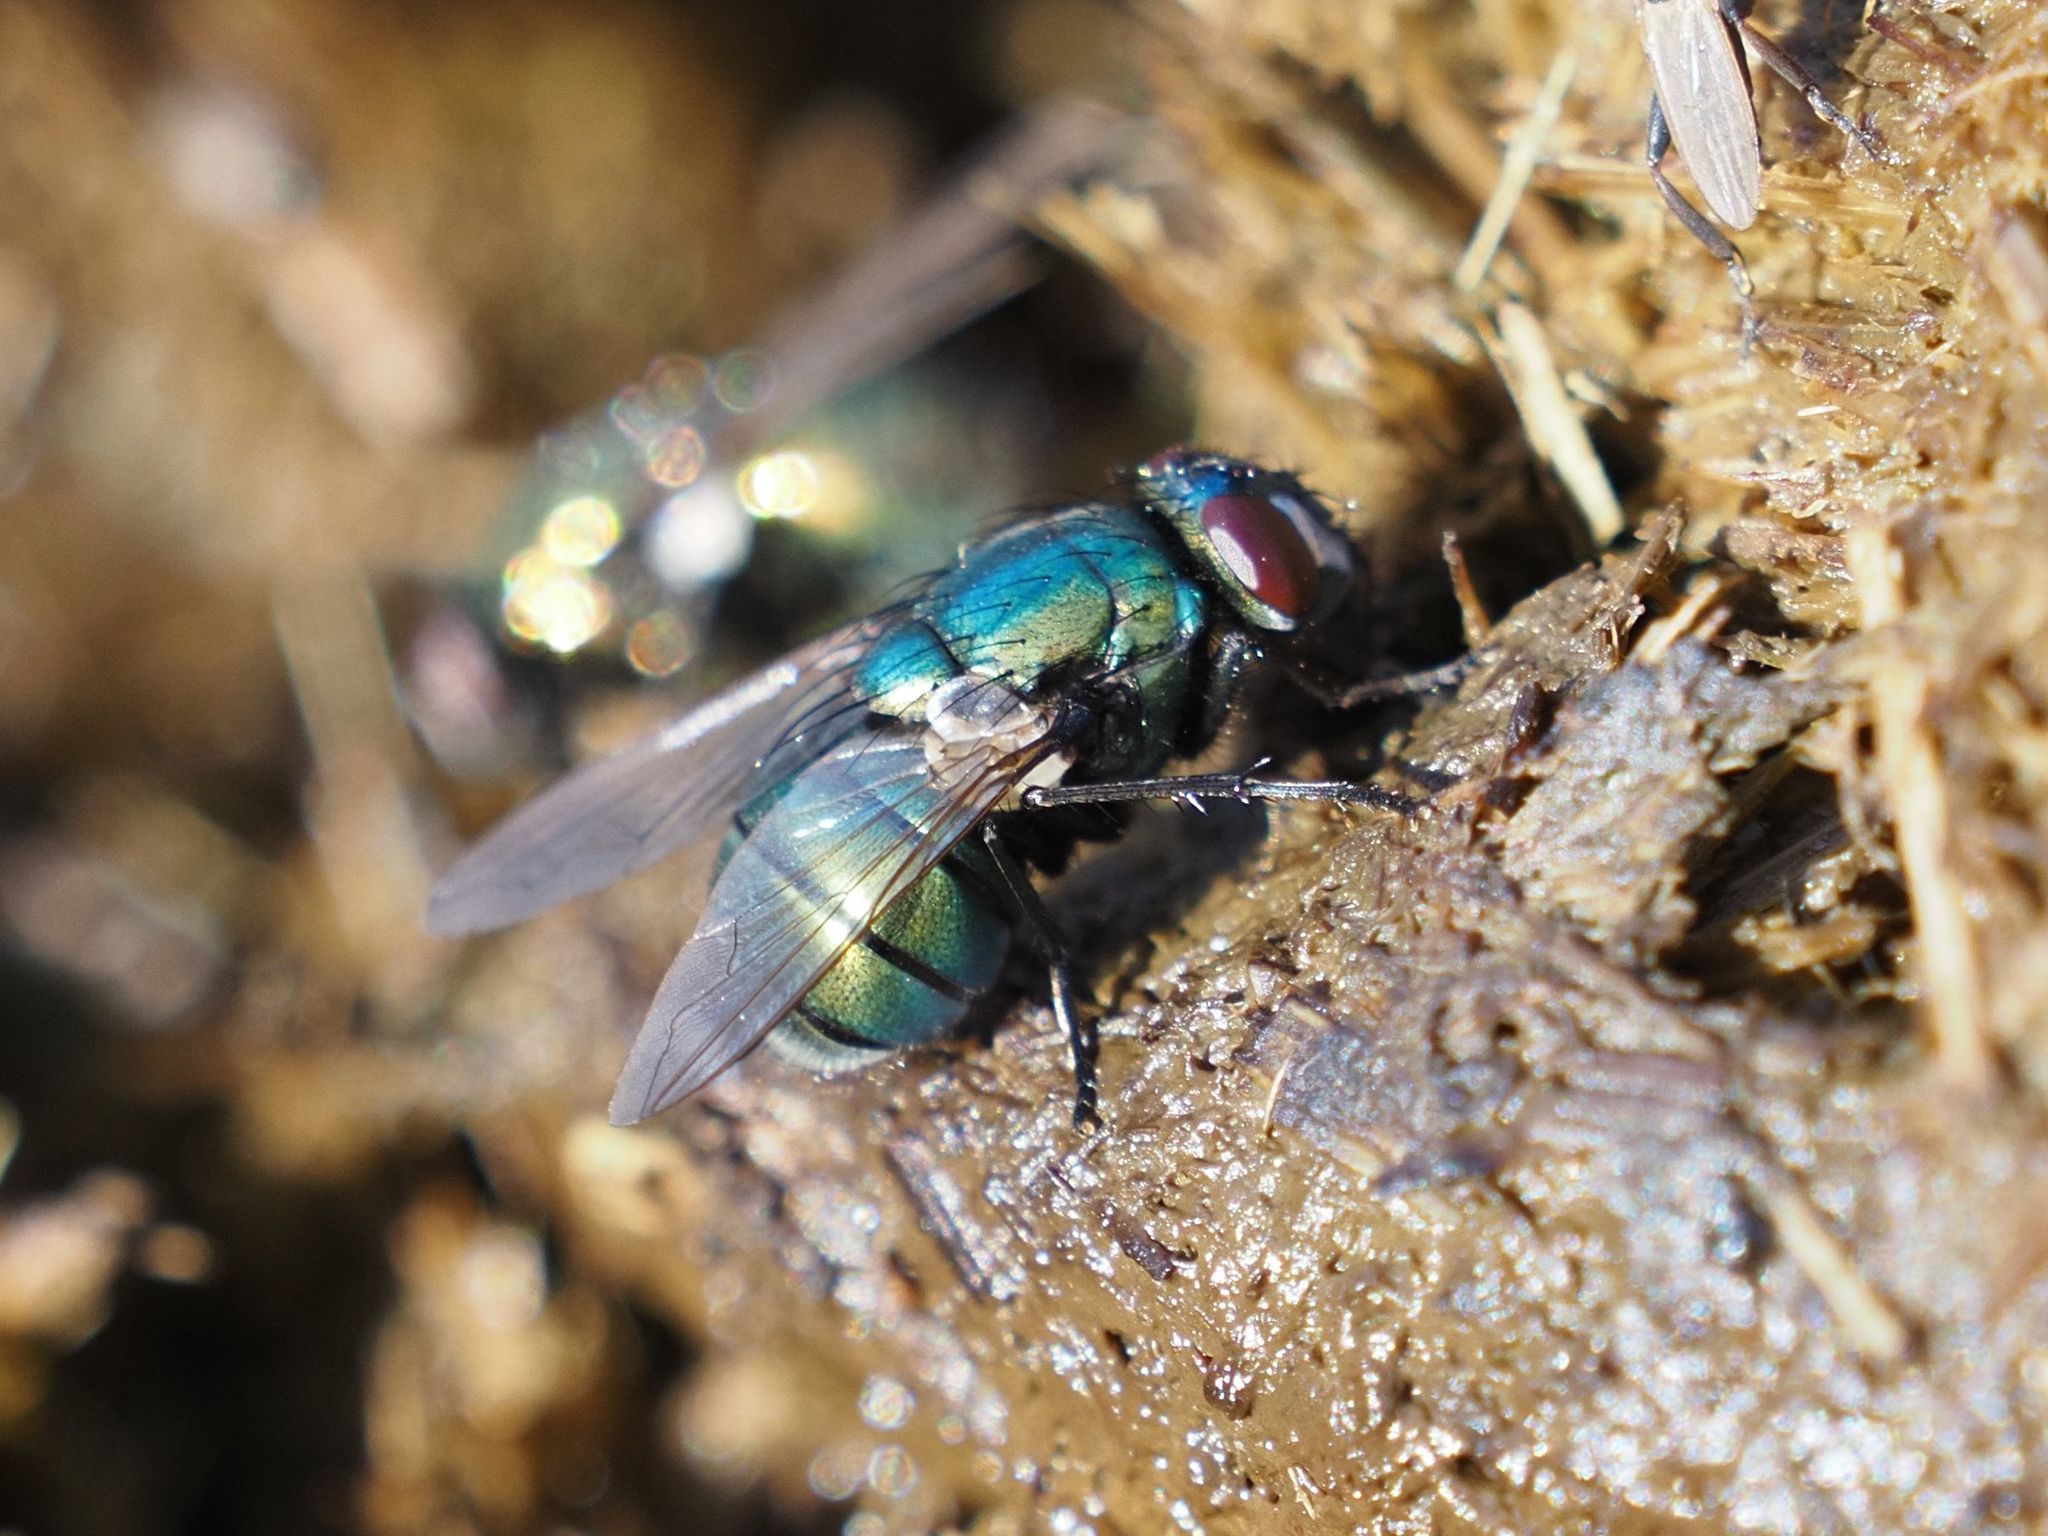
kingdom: Animalia
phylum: Arthropoda
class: Insecta
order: Diptera
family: Muscidae
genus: Neomyia
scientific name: Neomyia cornicina
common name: House fly
